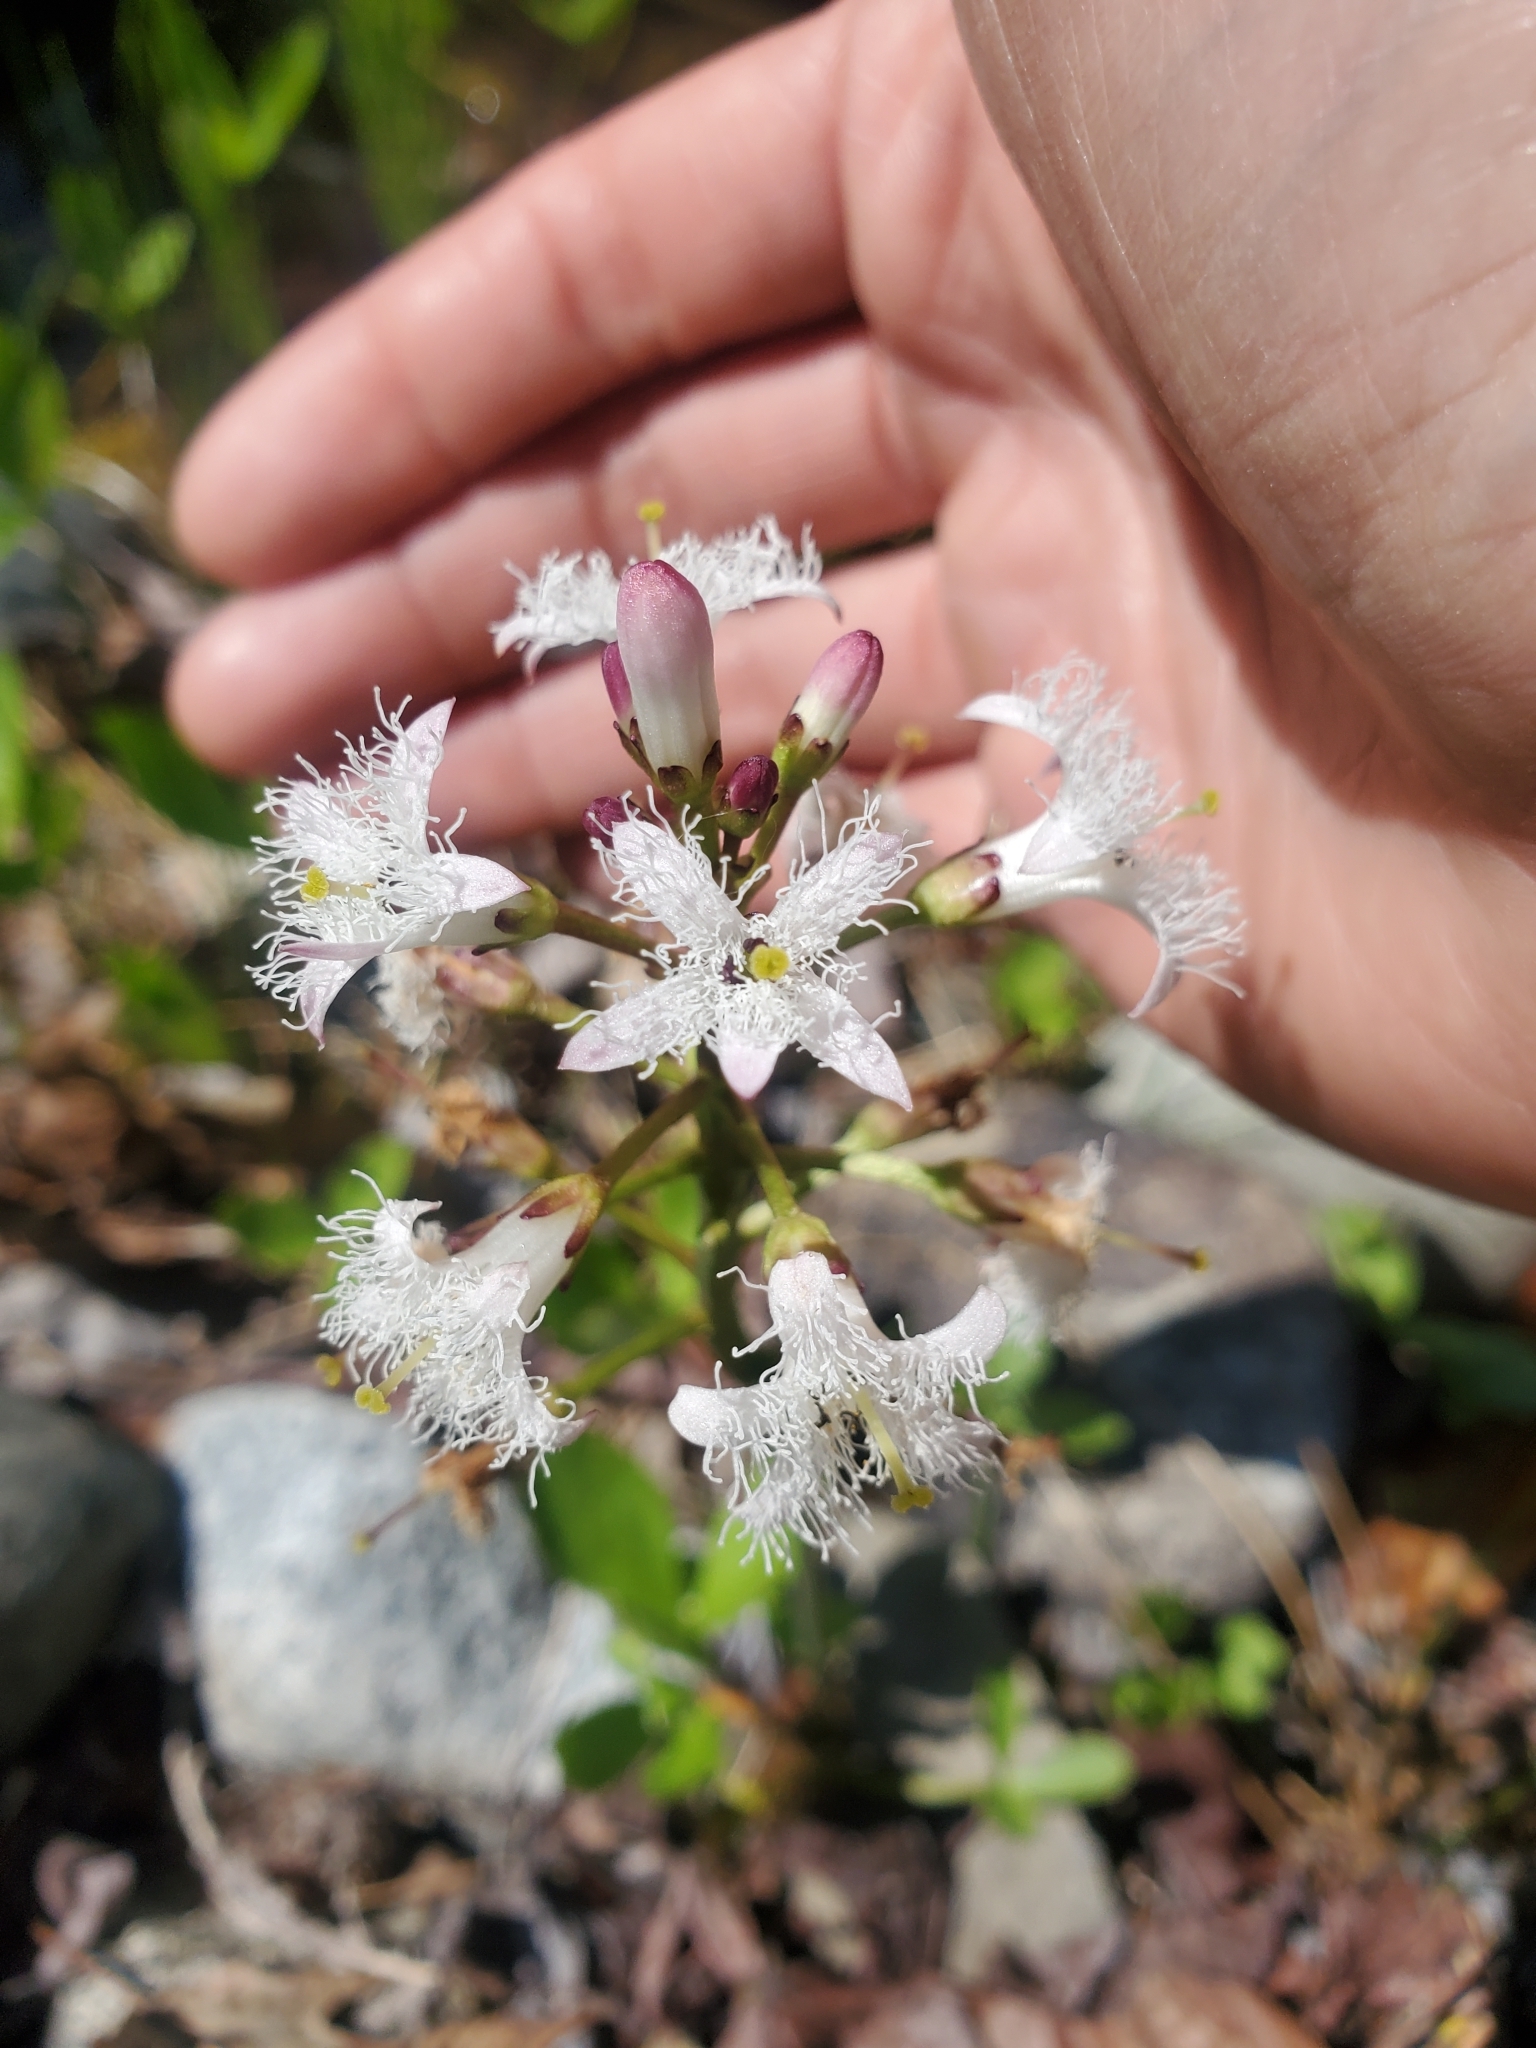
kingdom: Plantae
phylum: Tracheophyta
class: Magnoliopsida
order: Asterales
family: Menyanthaceae
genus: Menyanthes
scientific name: Menyanthes trifoliata
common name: Bogbean
